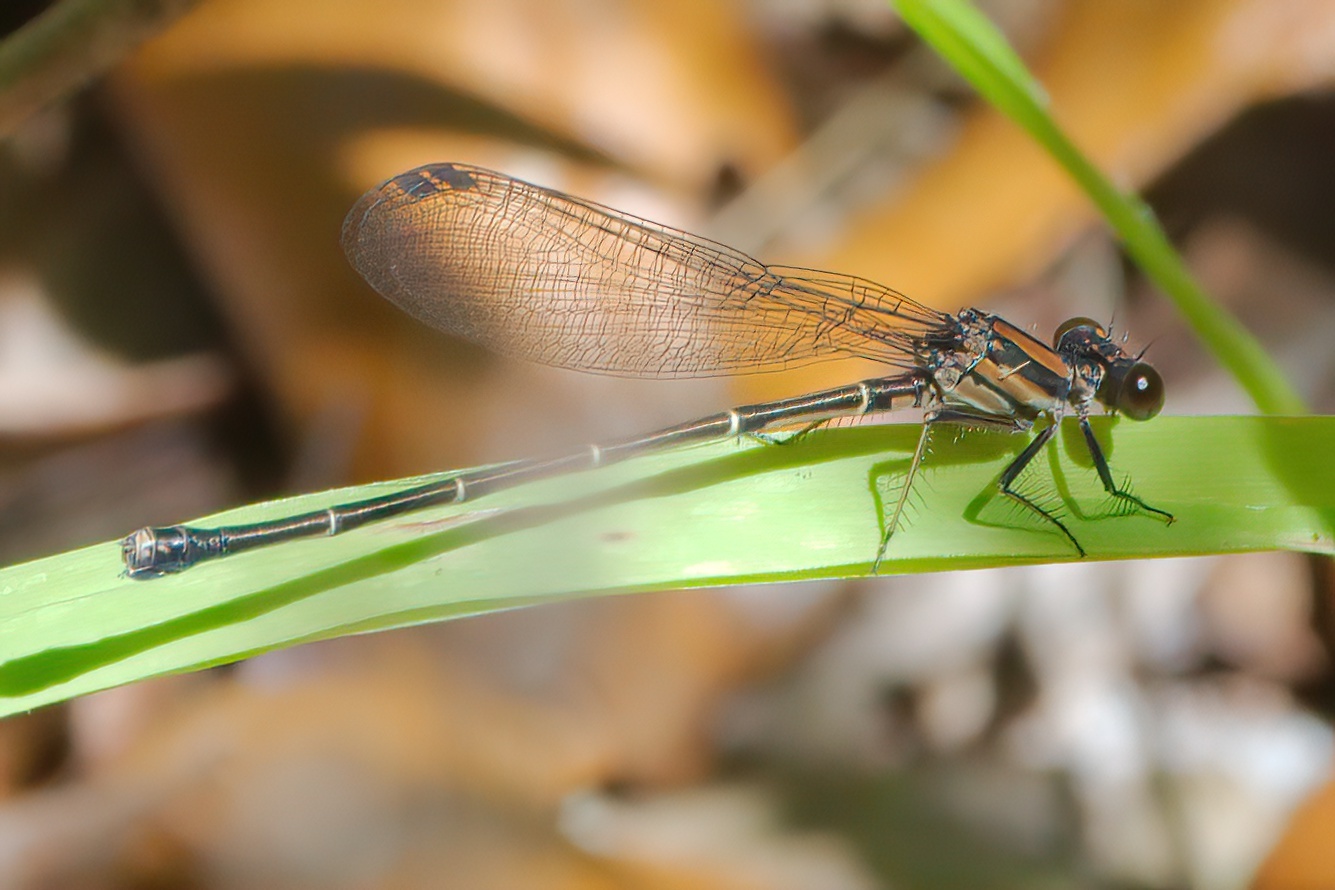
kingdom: Animalia
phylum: Arthropoda
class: Insecta
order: Odonata
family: Coenagrionidae
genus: Argia
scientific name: Argia tibialis
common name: Blue-tipped dancer
